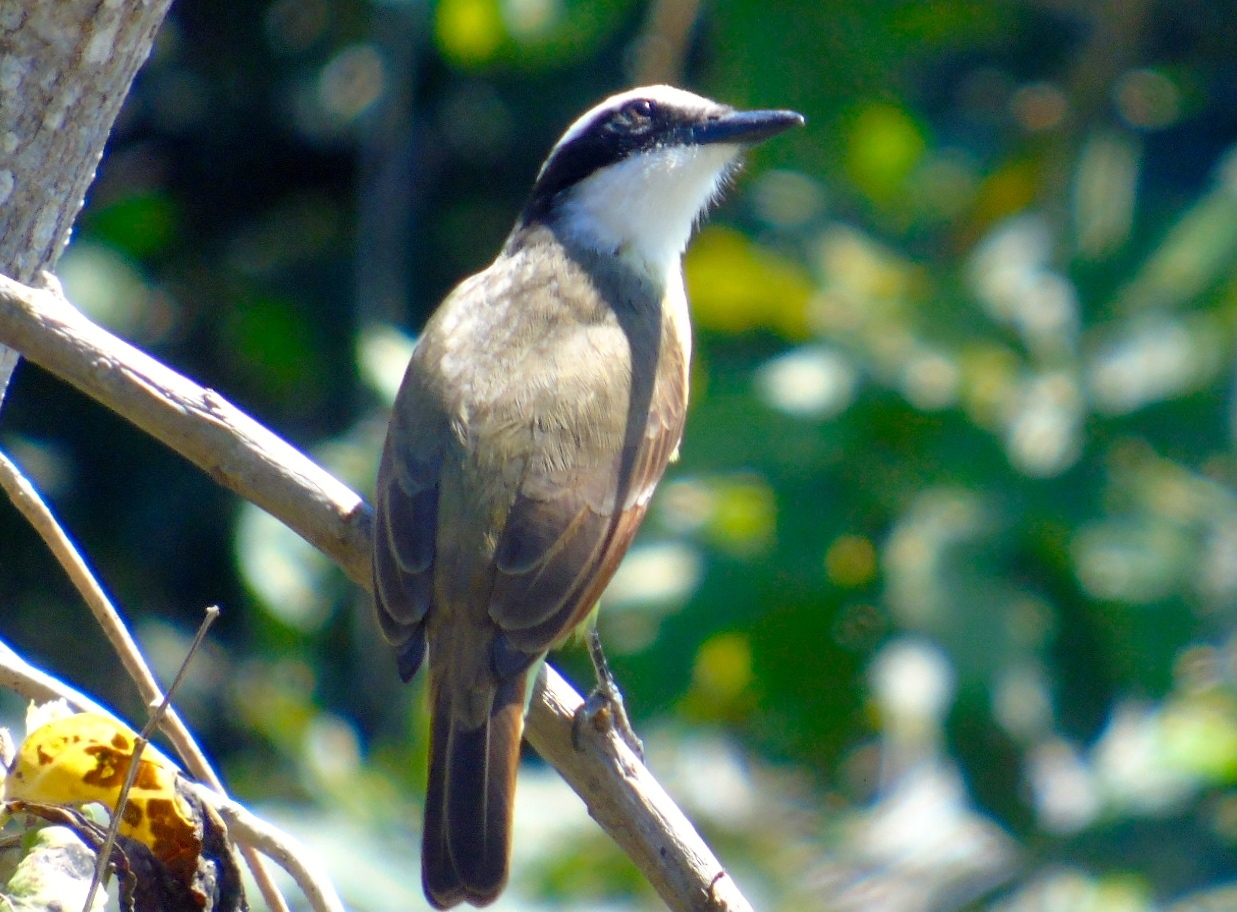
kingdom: Animalia
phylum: Chordata
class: Aves
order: Passeriformes
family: Tyrannidae
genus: Pitangus
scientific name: Pitangus sulphuratus
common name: Great kiskadee
